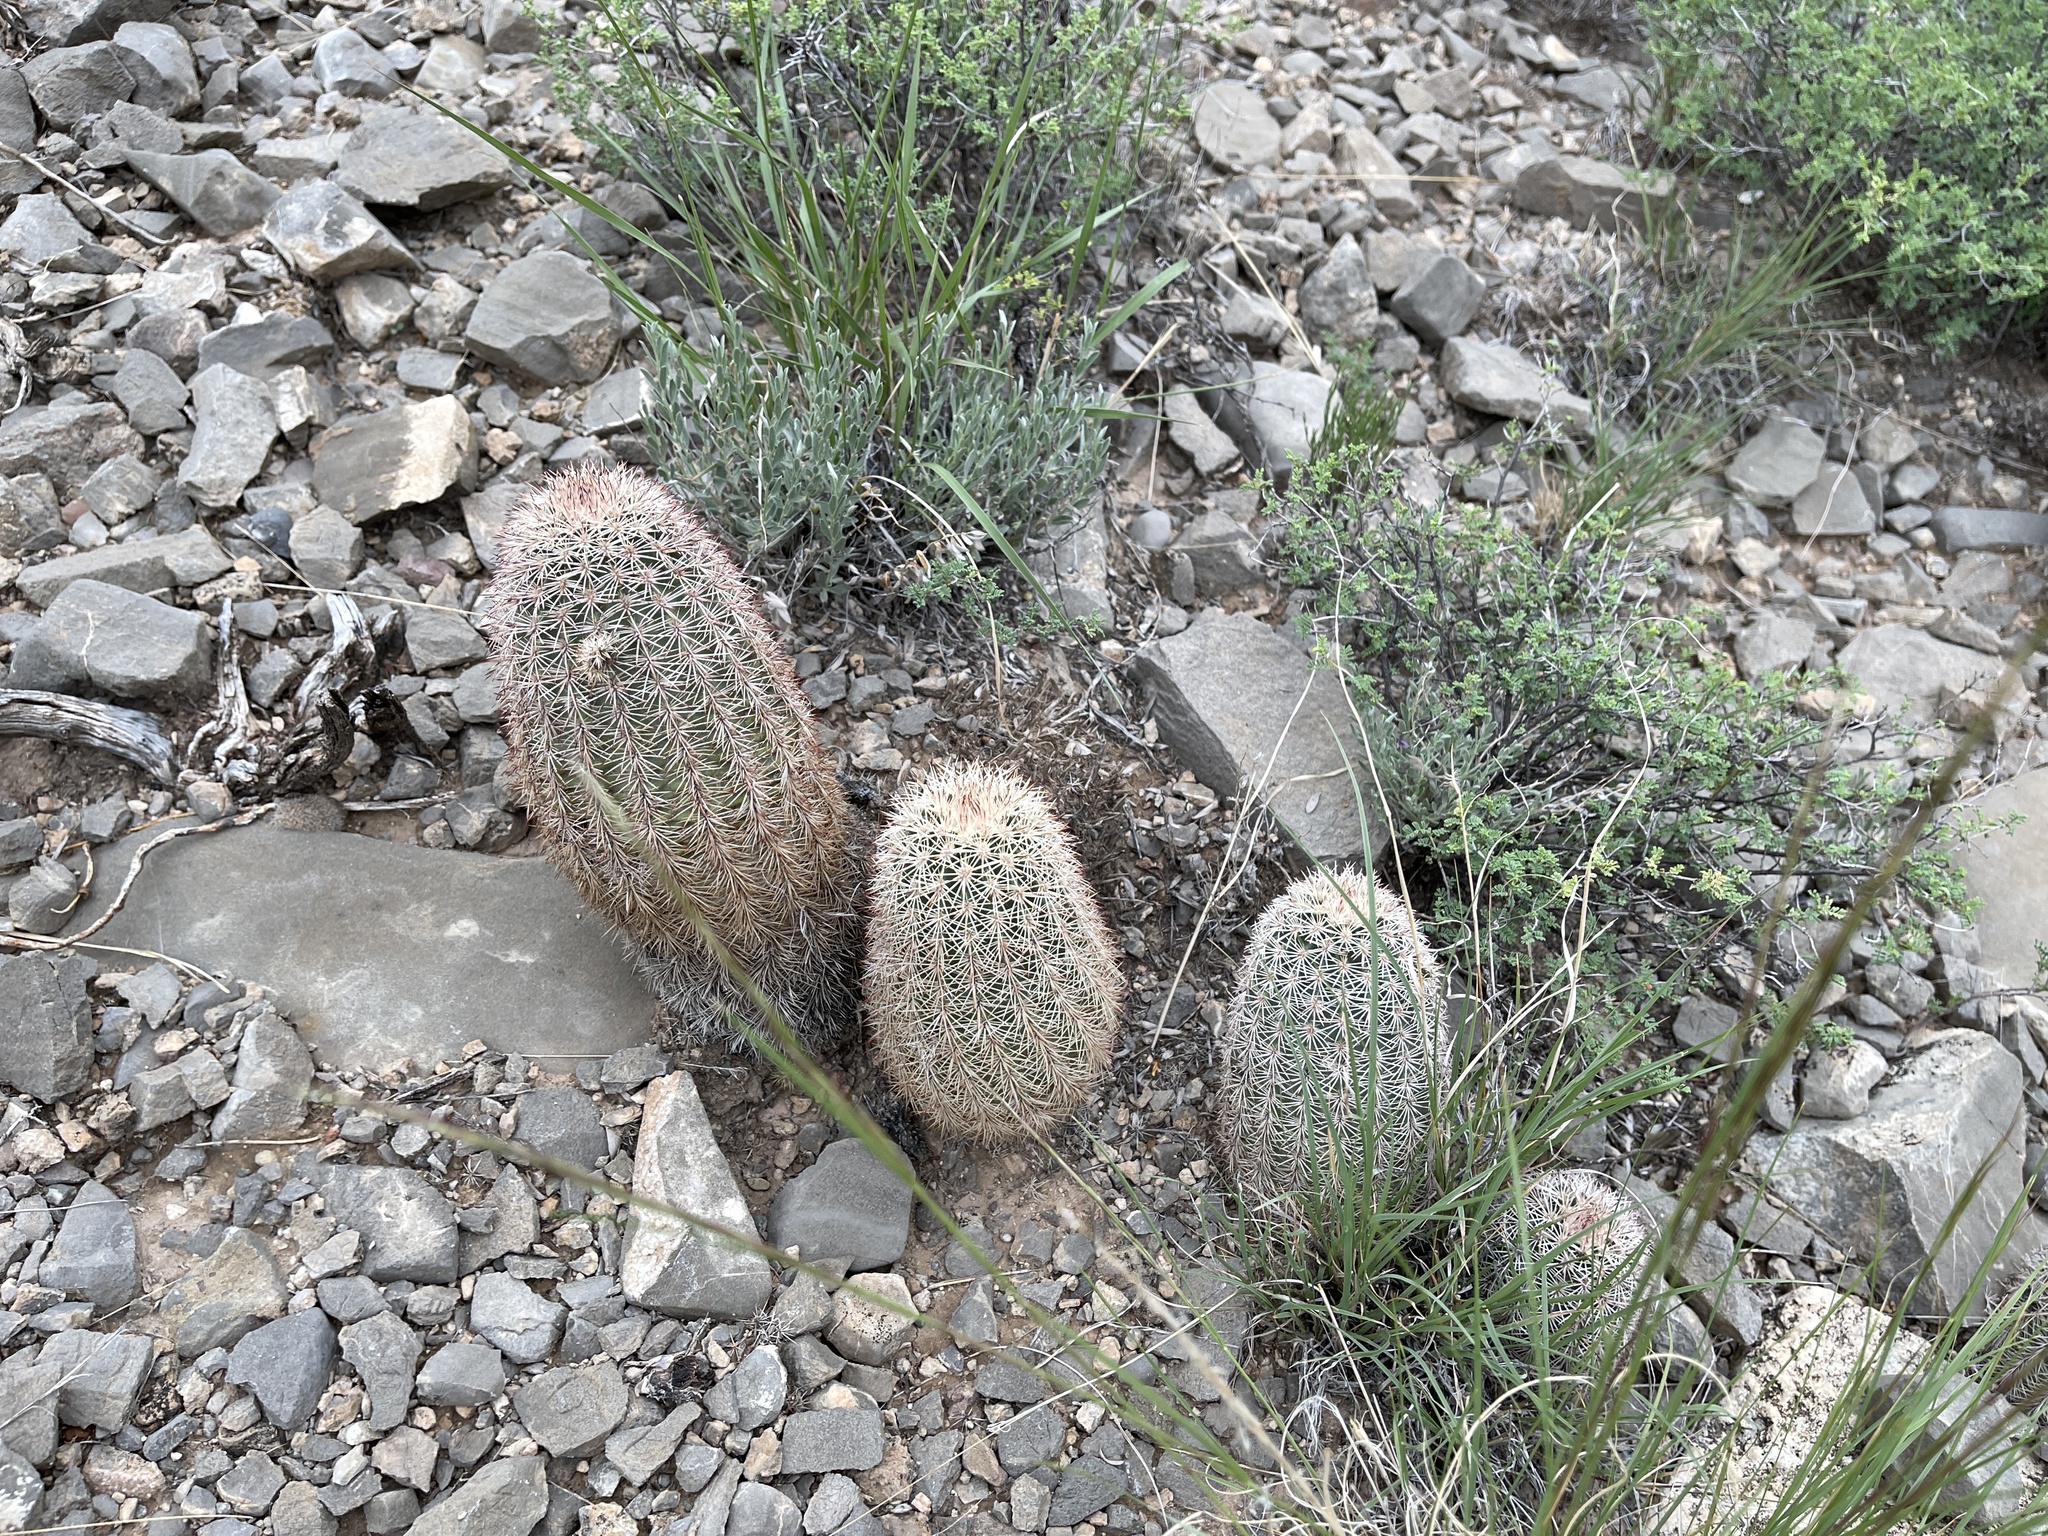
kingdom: Plantae
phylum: Tracheophyta
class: Magnoliopsida
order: Caryophyllales
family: Cactaceae
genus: Echinocereus
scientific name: Echinocereus dasyacanthus
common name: Spiny hedgehog cactus
